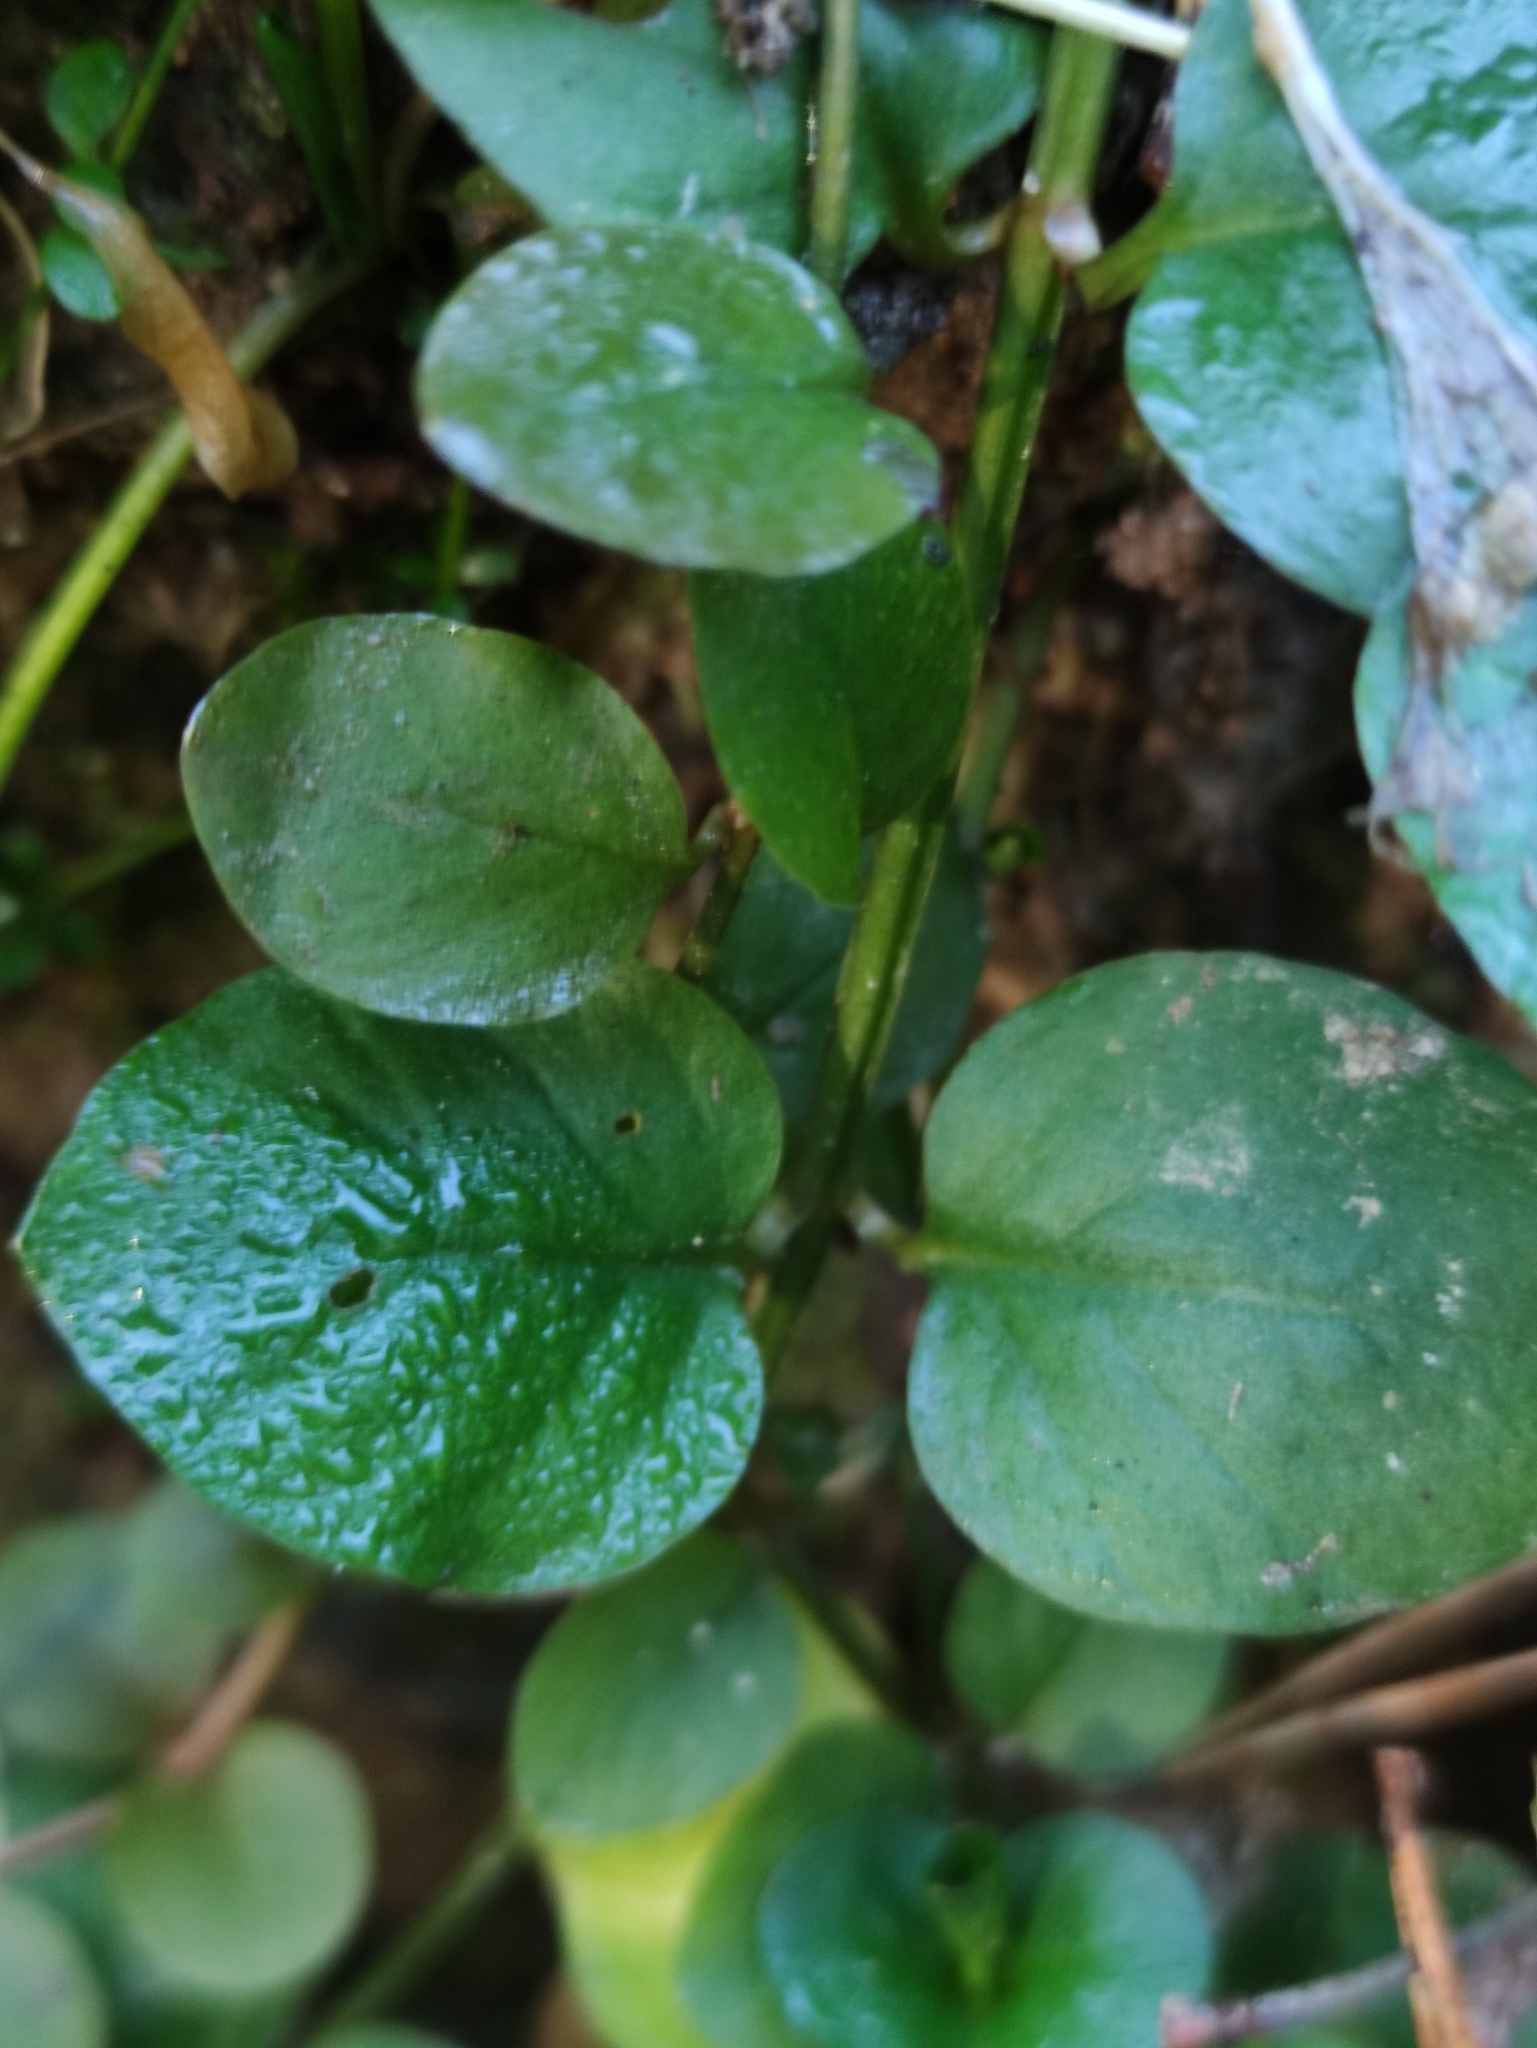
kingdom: Plantae
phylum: Tracheophyta
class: Magnoliopsida
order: Ericales
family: Primulaceae
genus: Lysimachia
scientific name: Lysimachia nummularia
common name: Moneywort
